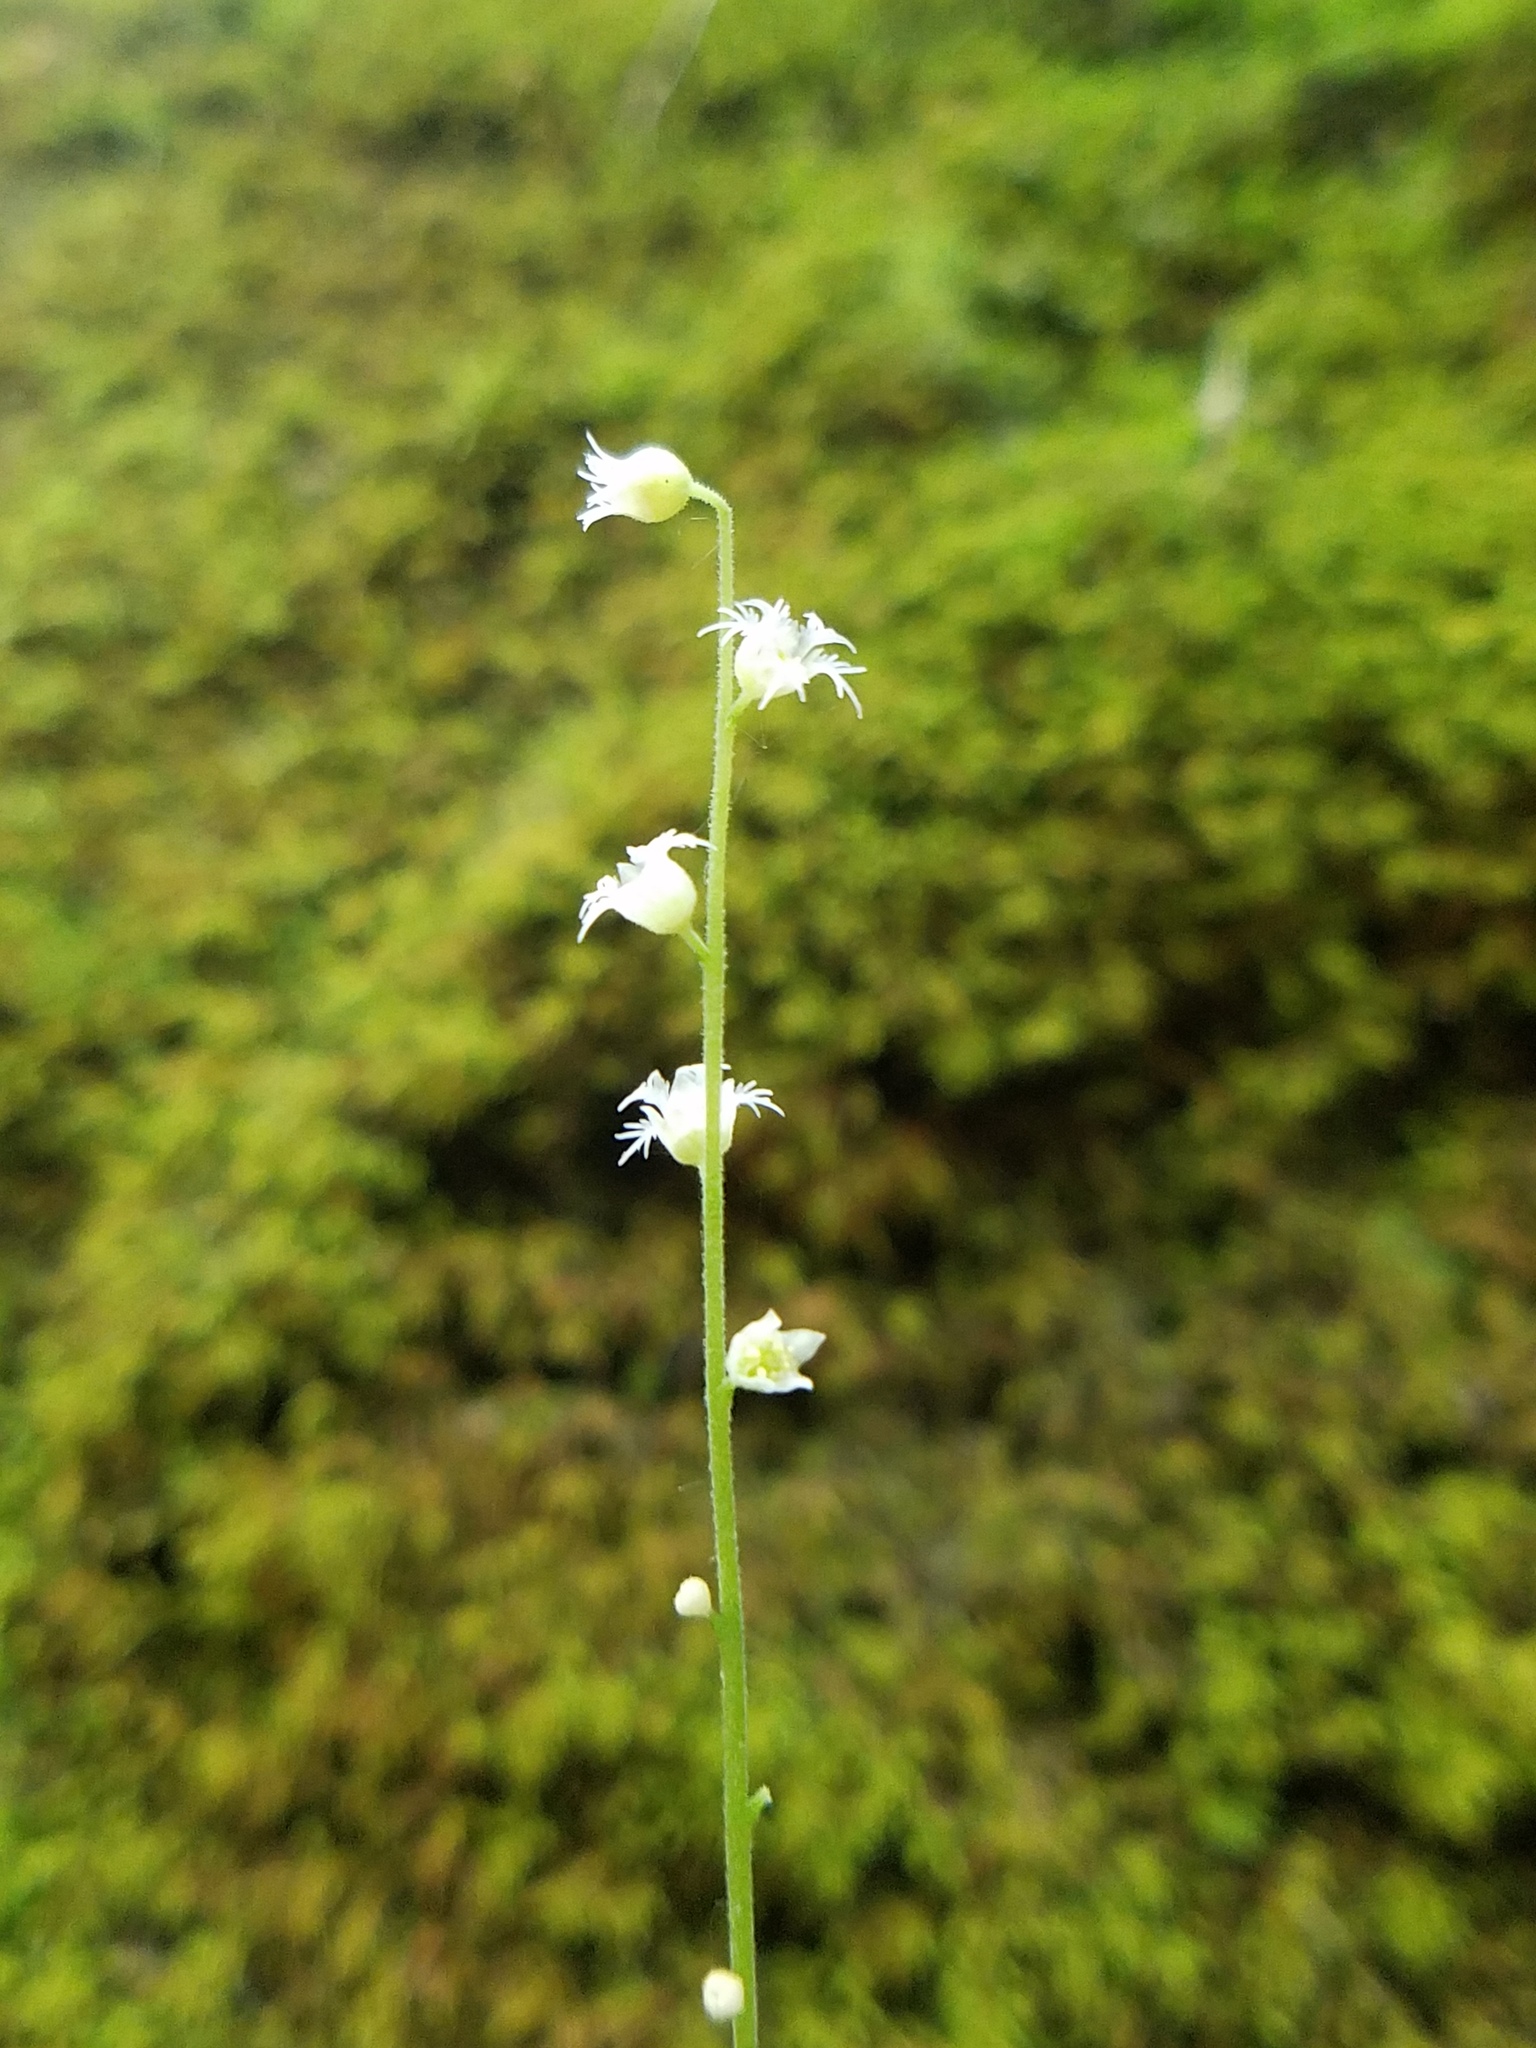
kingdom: Plantae
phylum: Tracheophyta
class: Magnoliopsida
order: Saxifragales
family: Saxifragaceae
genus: Mitella
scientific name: Mitella diphylla
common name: Coolwort
